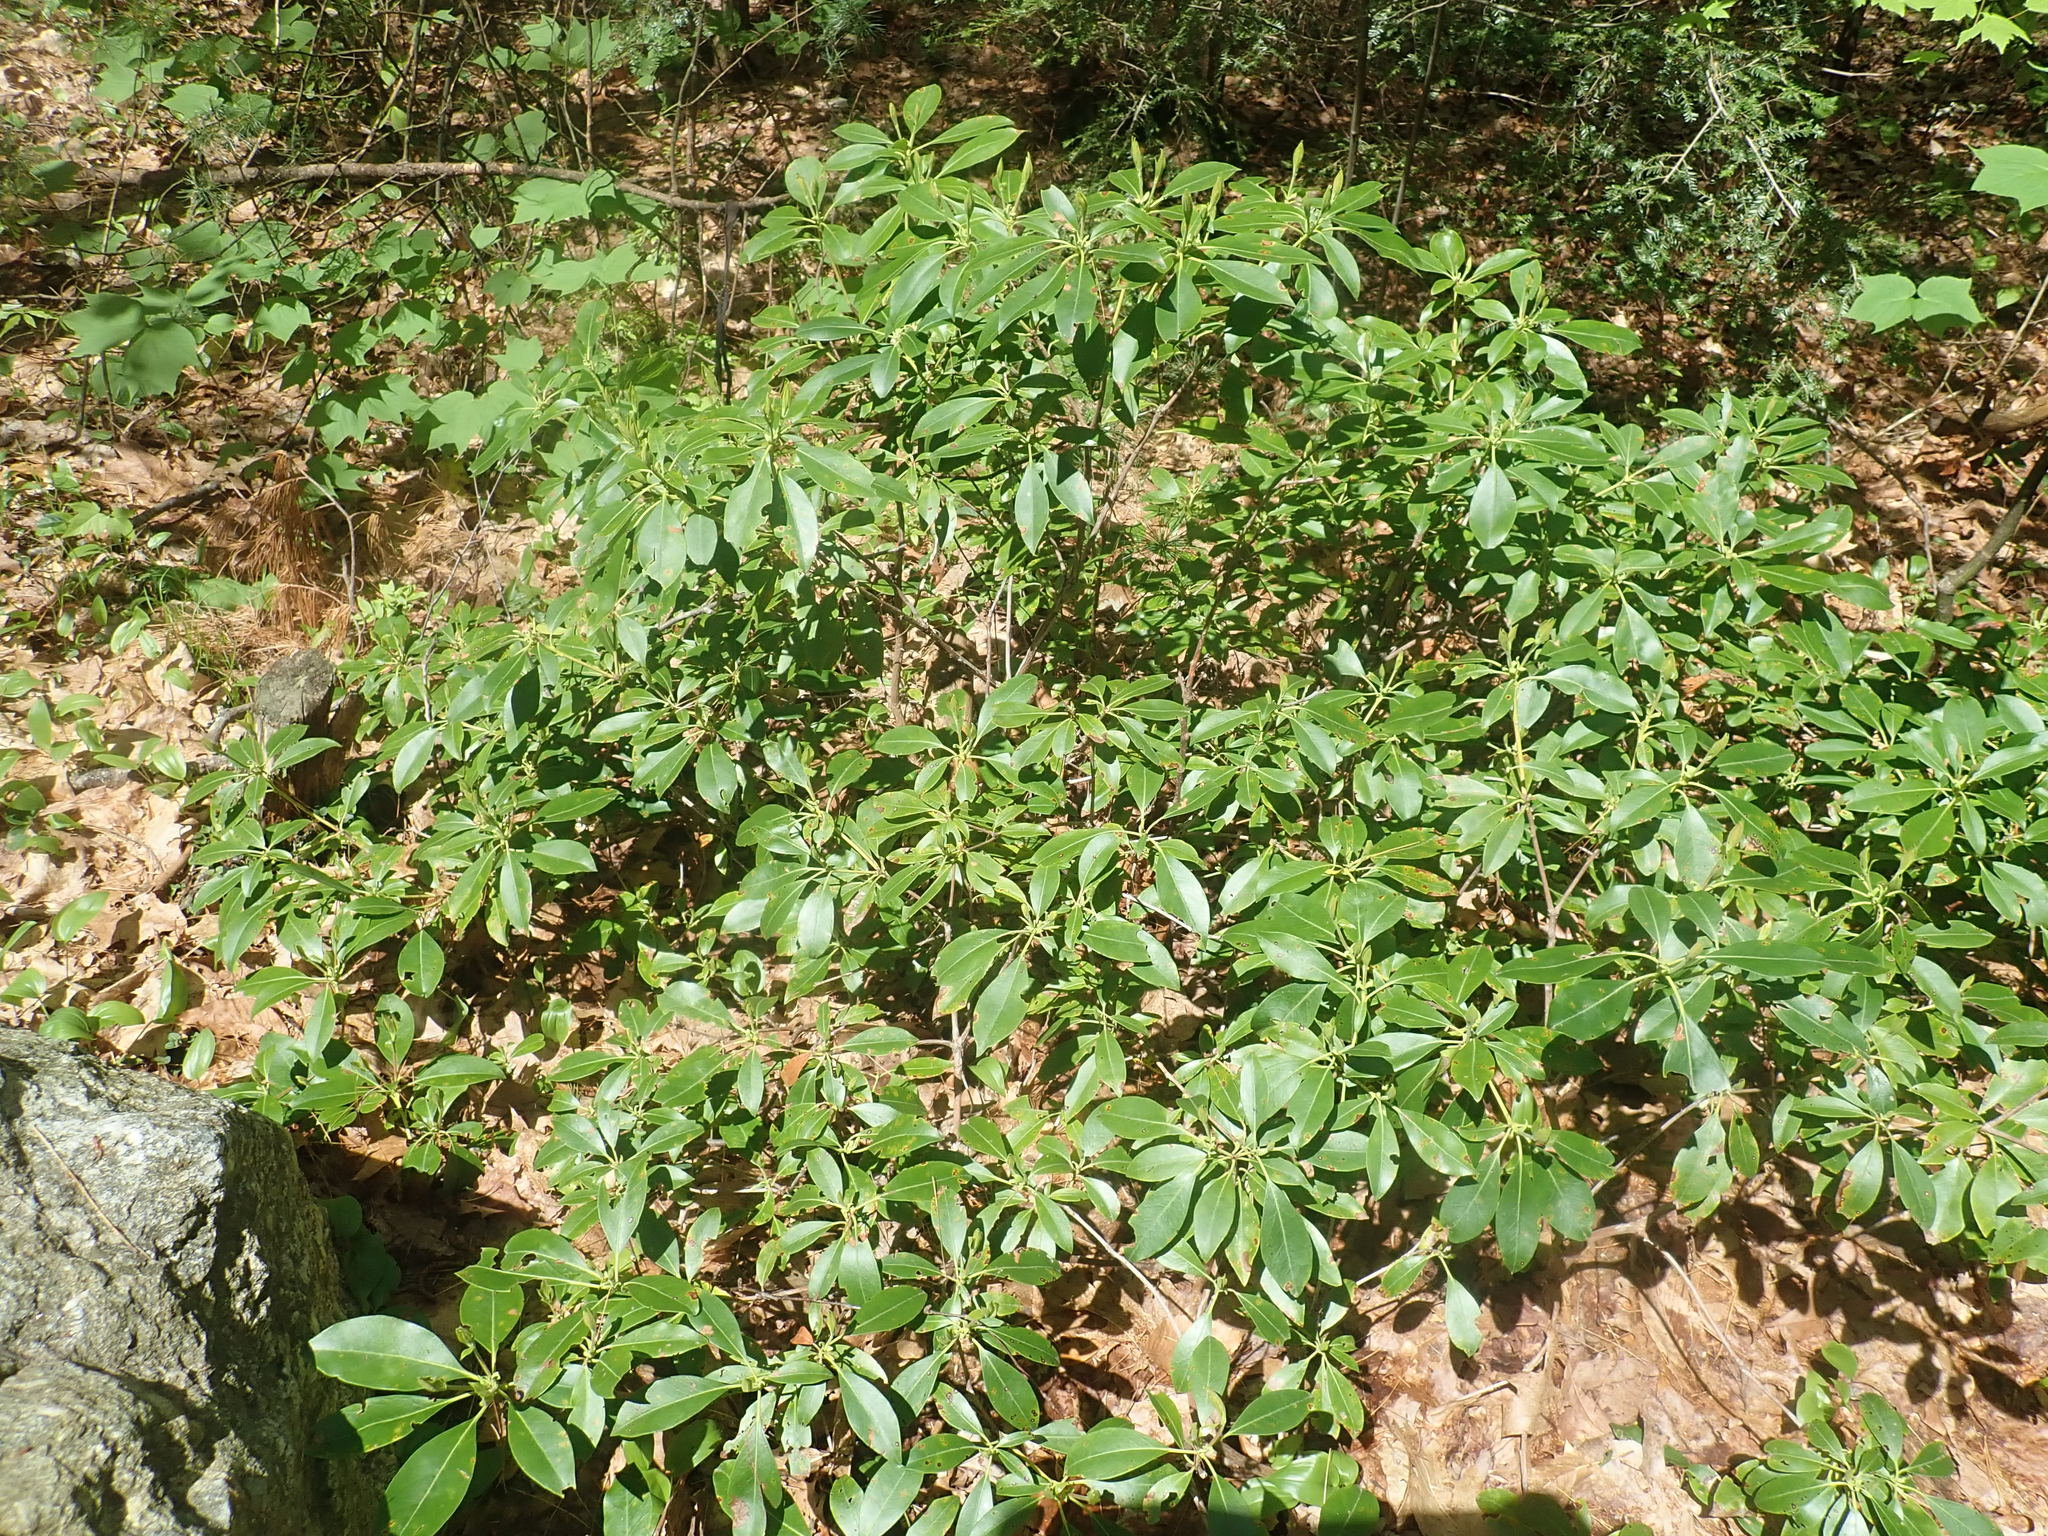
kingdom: Plantae
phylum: Tracheophyta
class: Magnoliopsida
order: Ericales
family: Ericaceae
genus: Kalmia
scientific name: Kalmia latifolia
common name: Mountain-laurel
